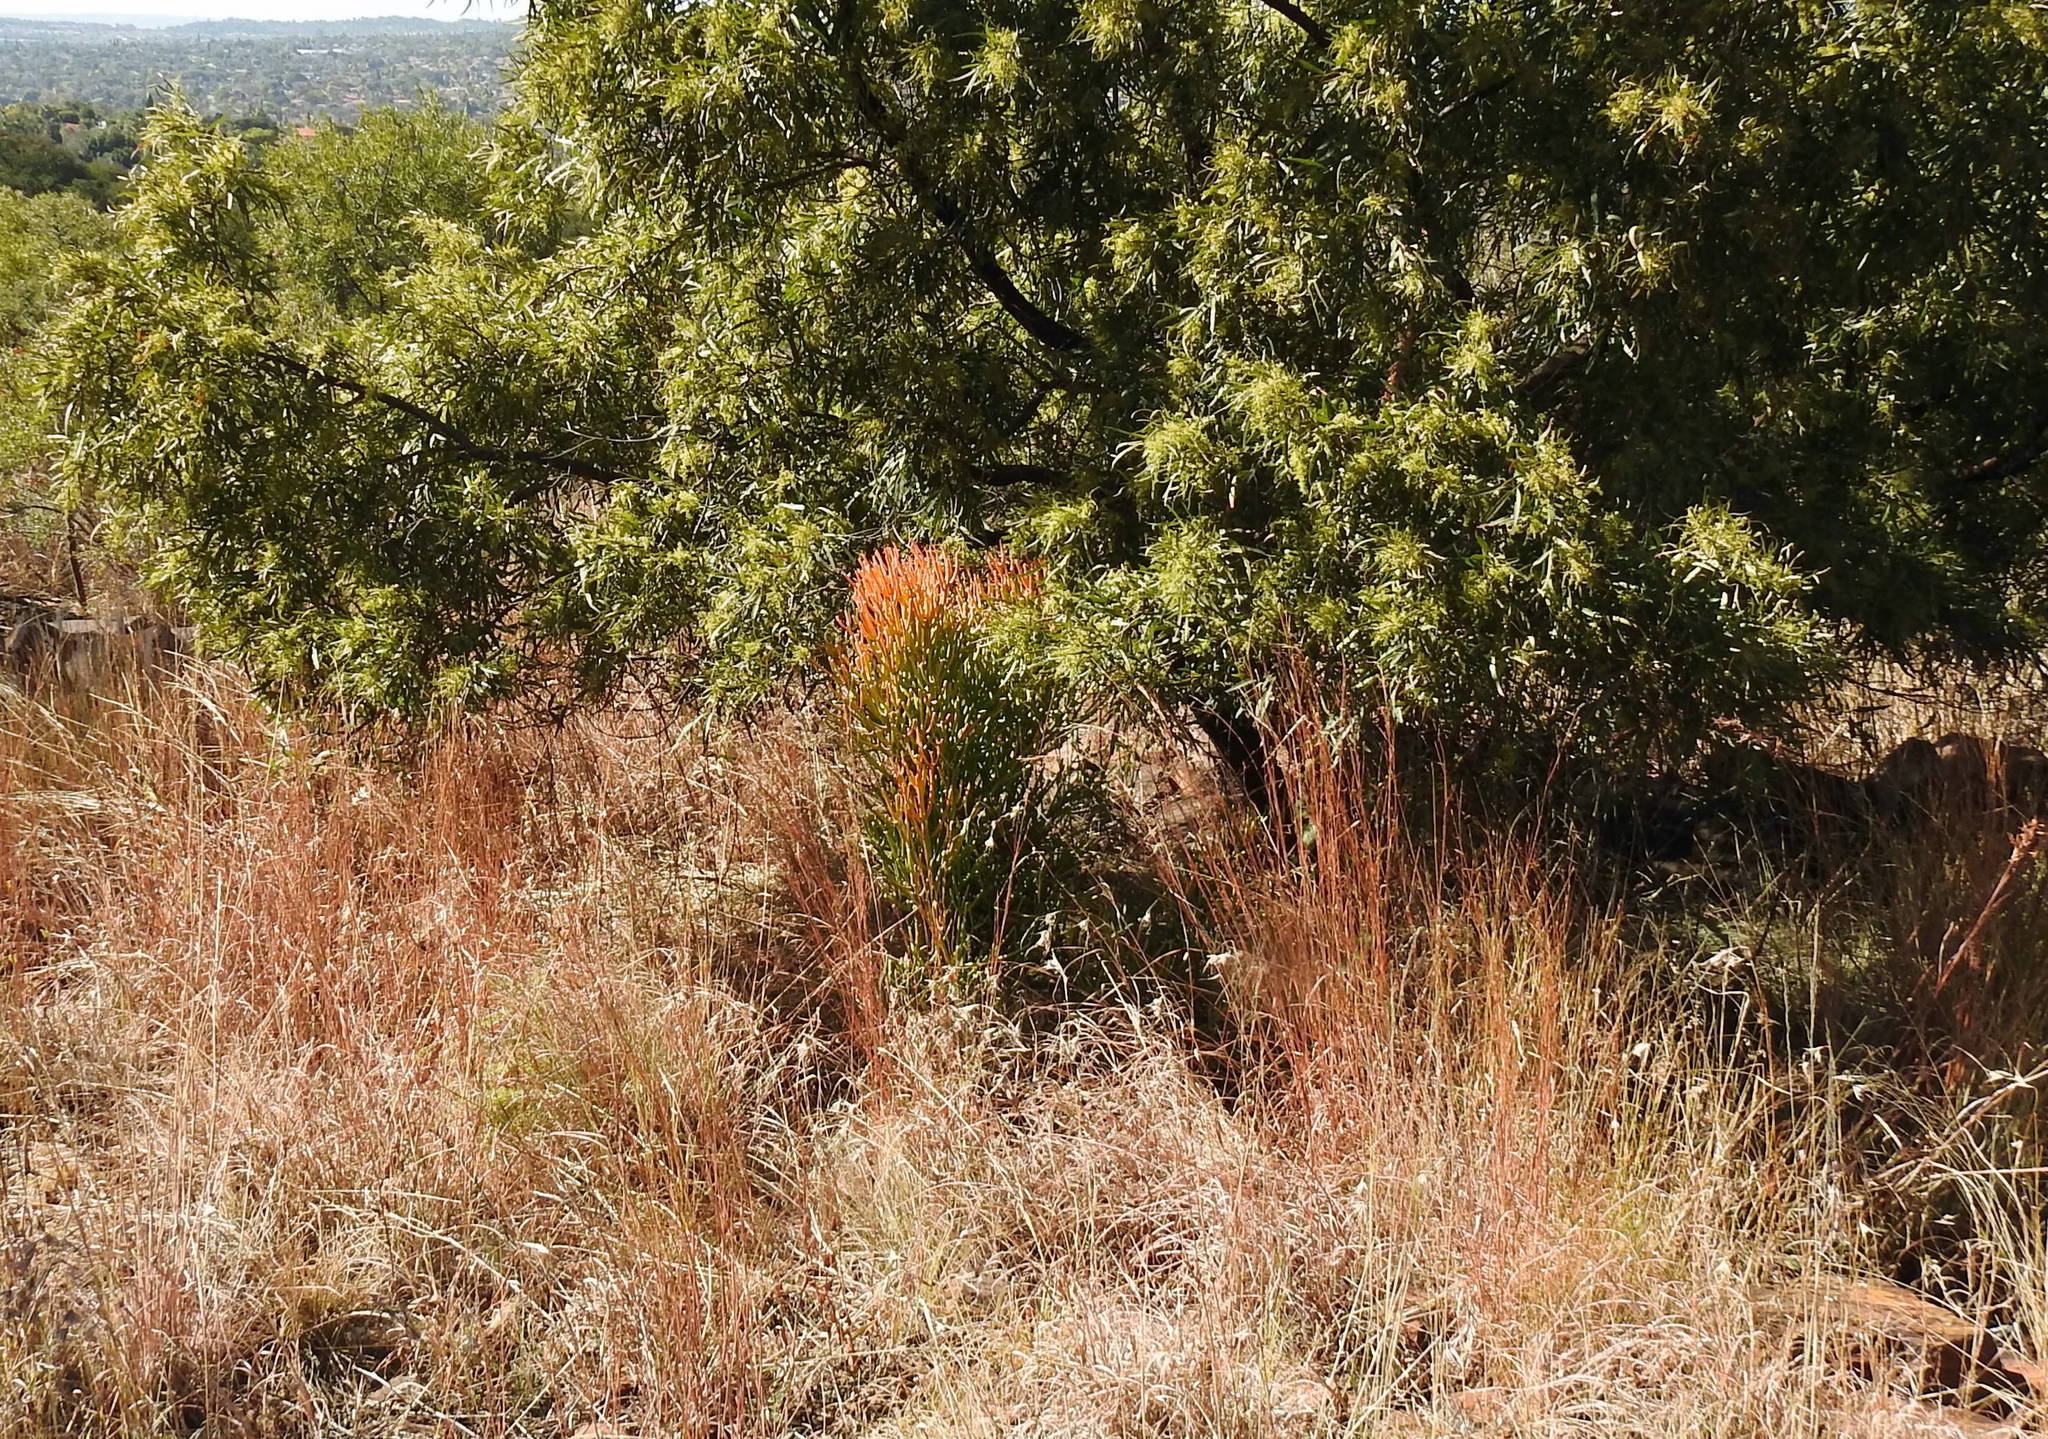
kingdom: Plantae
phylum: Tracheophyta
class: Magnoliopsida
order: Malpighiales
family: Euphorbiaceae
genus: Euphorbia
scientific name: Euphorbia tirucalli
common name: Indiantree spurge
